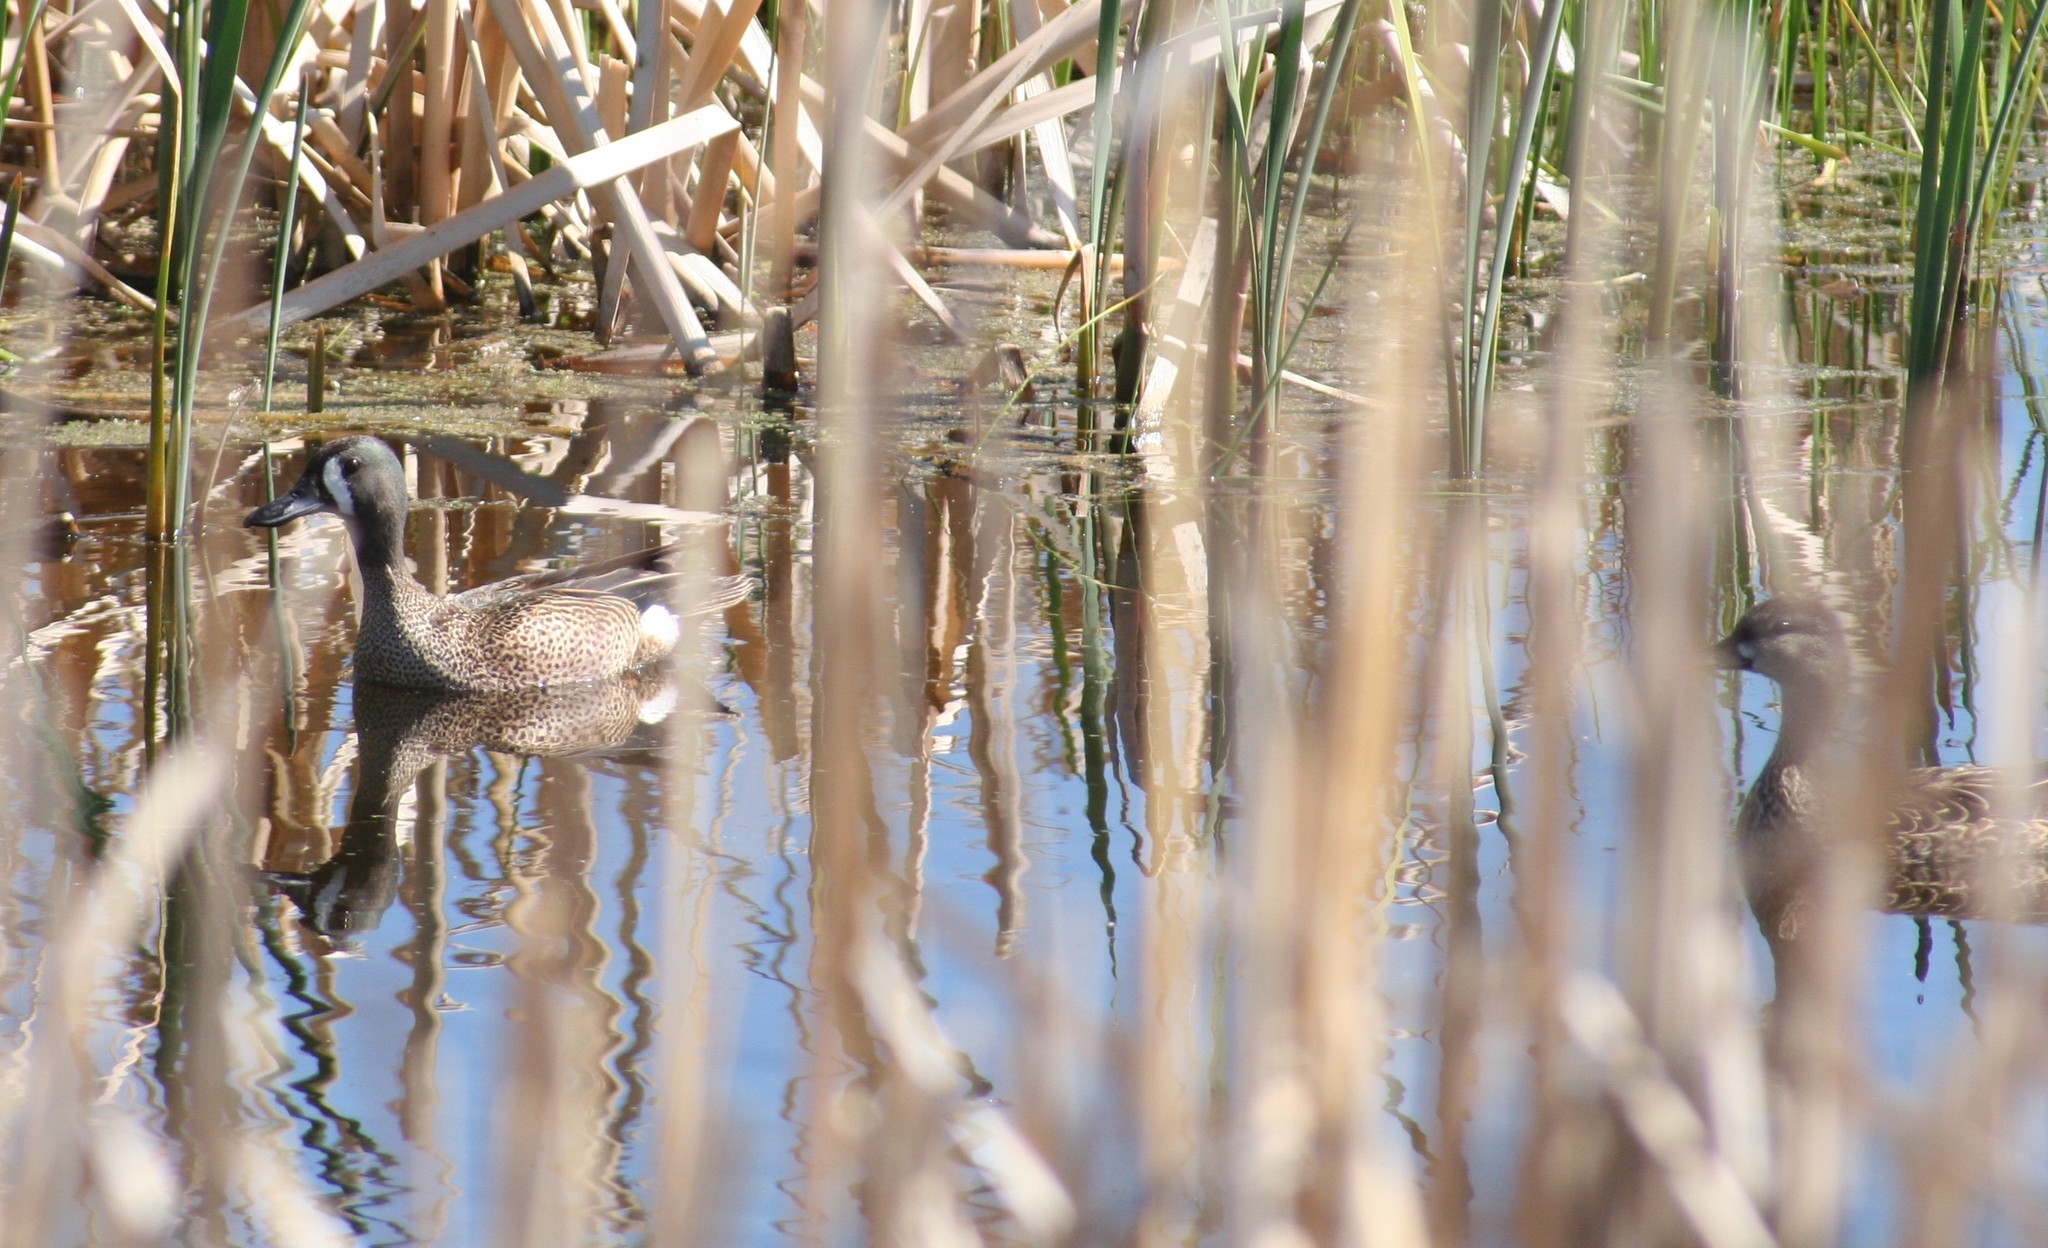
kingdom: Animalia
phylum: Chordata
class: Aves
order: Anseriformes
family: Anatidae
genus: Spatula
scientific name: Spatula discors
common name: Blue-winged teal
